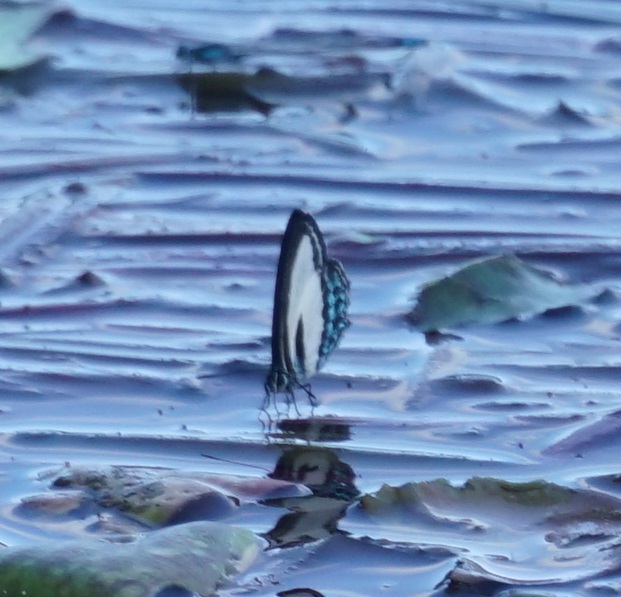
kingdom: Animalia
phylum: Arthropoda
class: Insecta
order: Lepidoptera
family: Lycaenidae
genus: Nacaduba
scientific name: Nacaduba cyanea
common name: Tailed green-banded line blue
